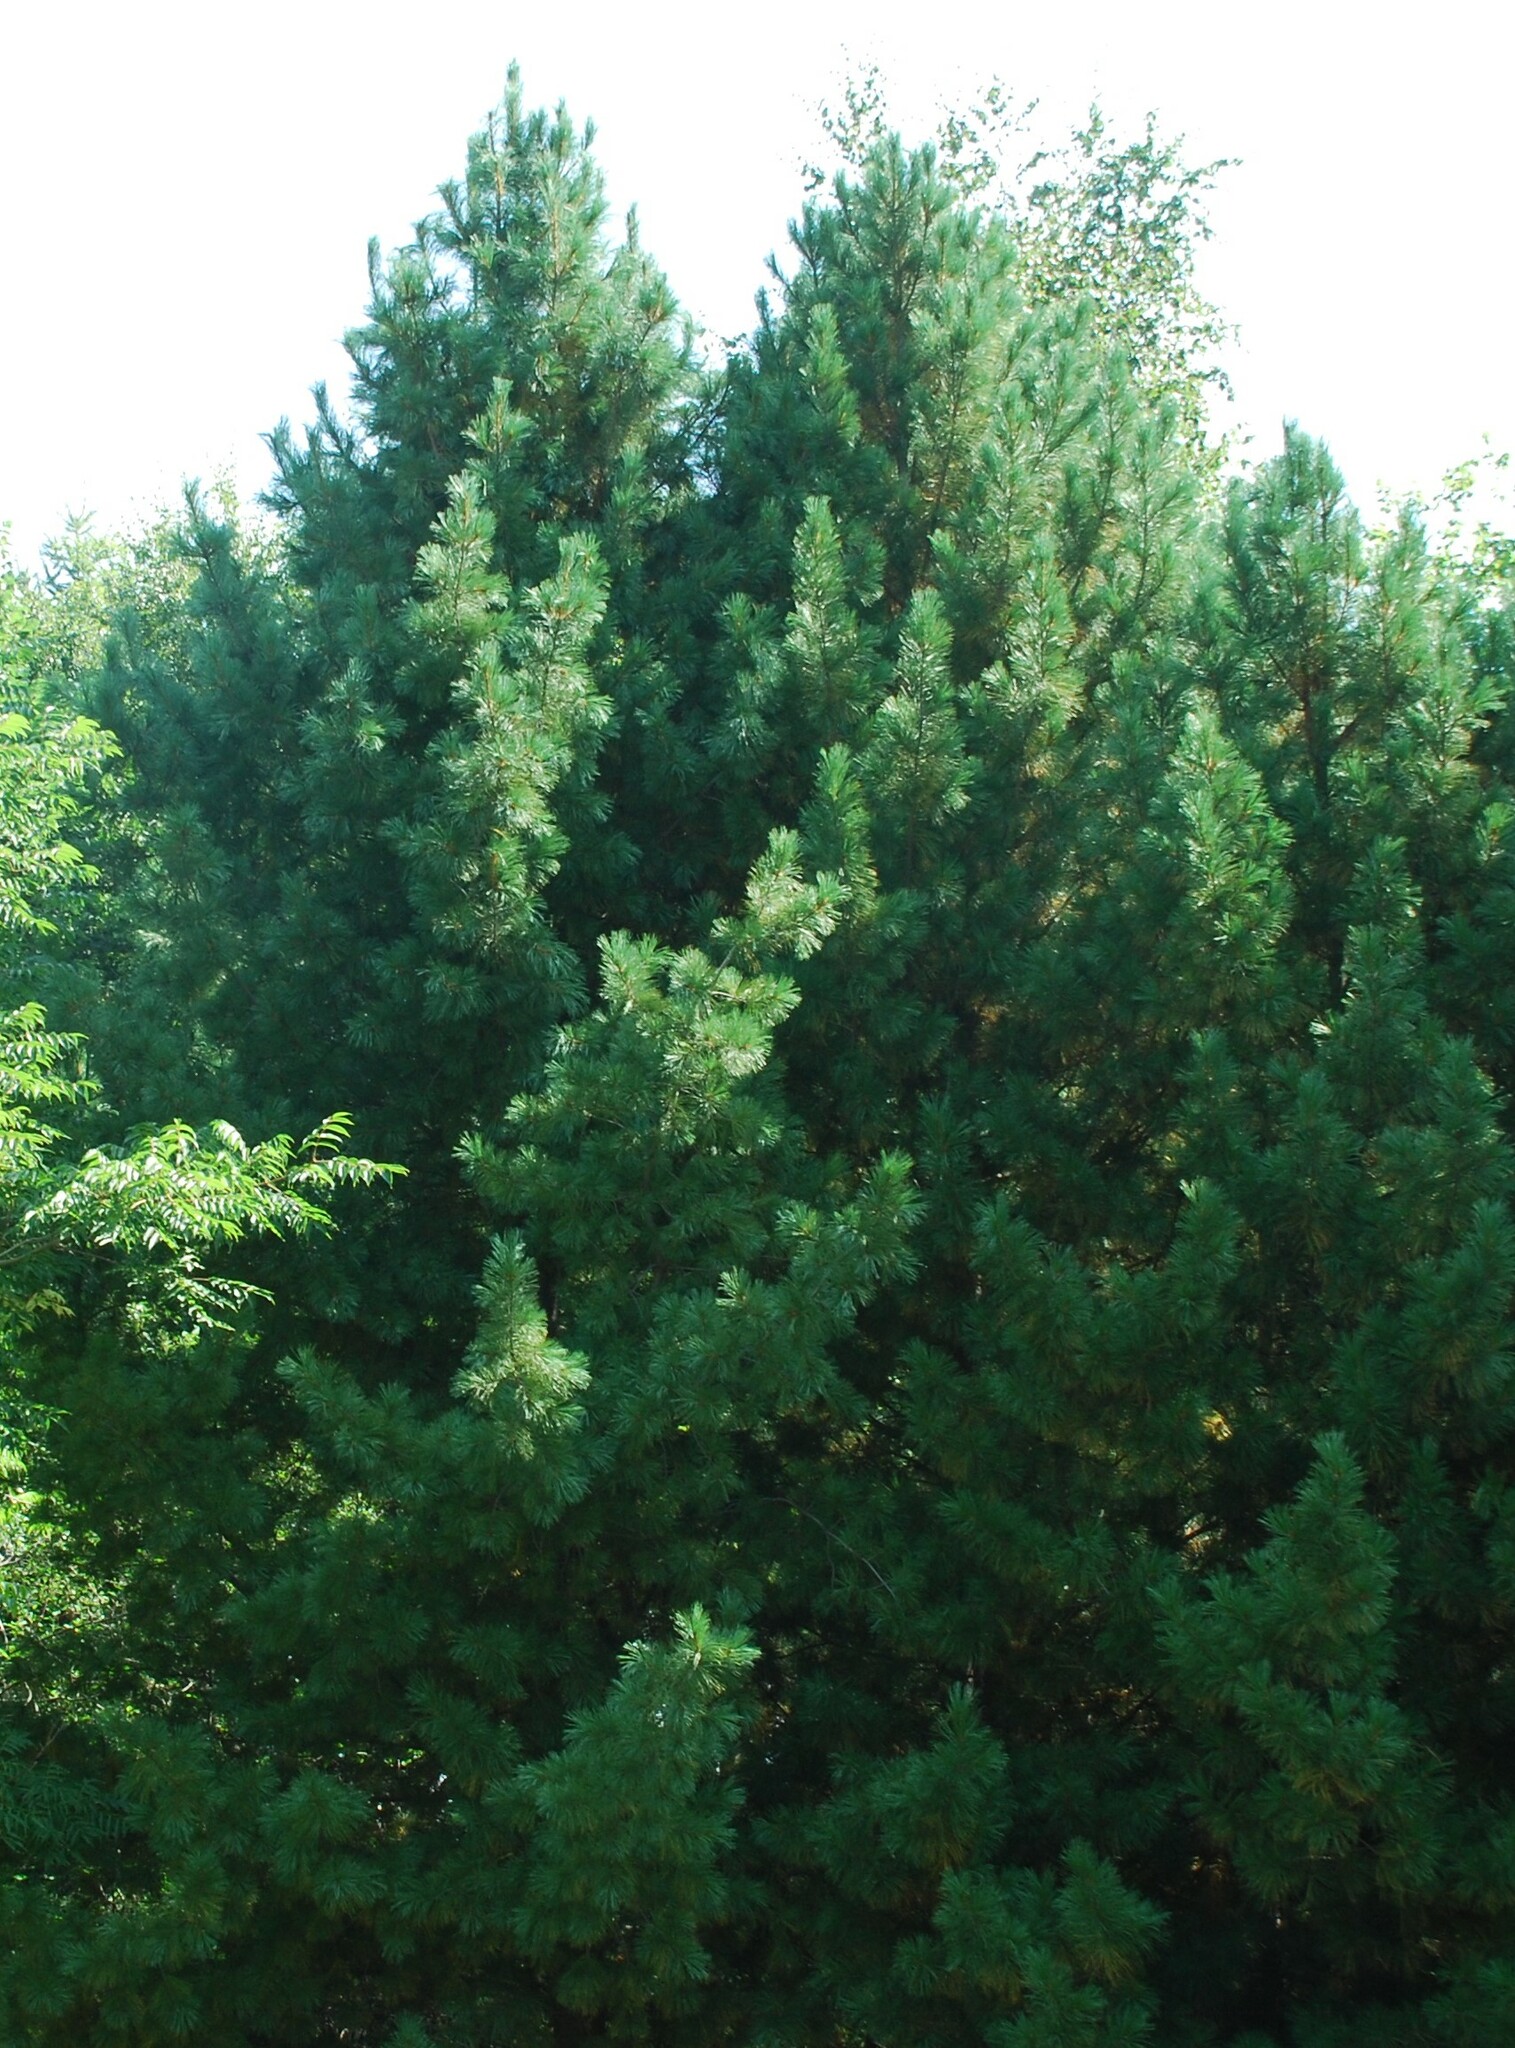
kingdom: Plantae
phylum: Tracheophyta
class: Pinopsida
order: Pinales
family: Pinaceae
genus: Pinus
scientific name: Pinus sibirica
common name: Siberian pine
